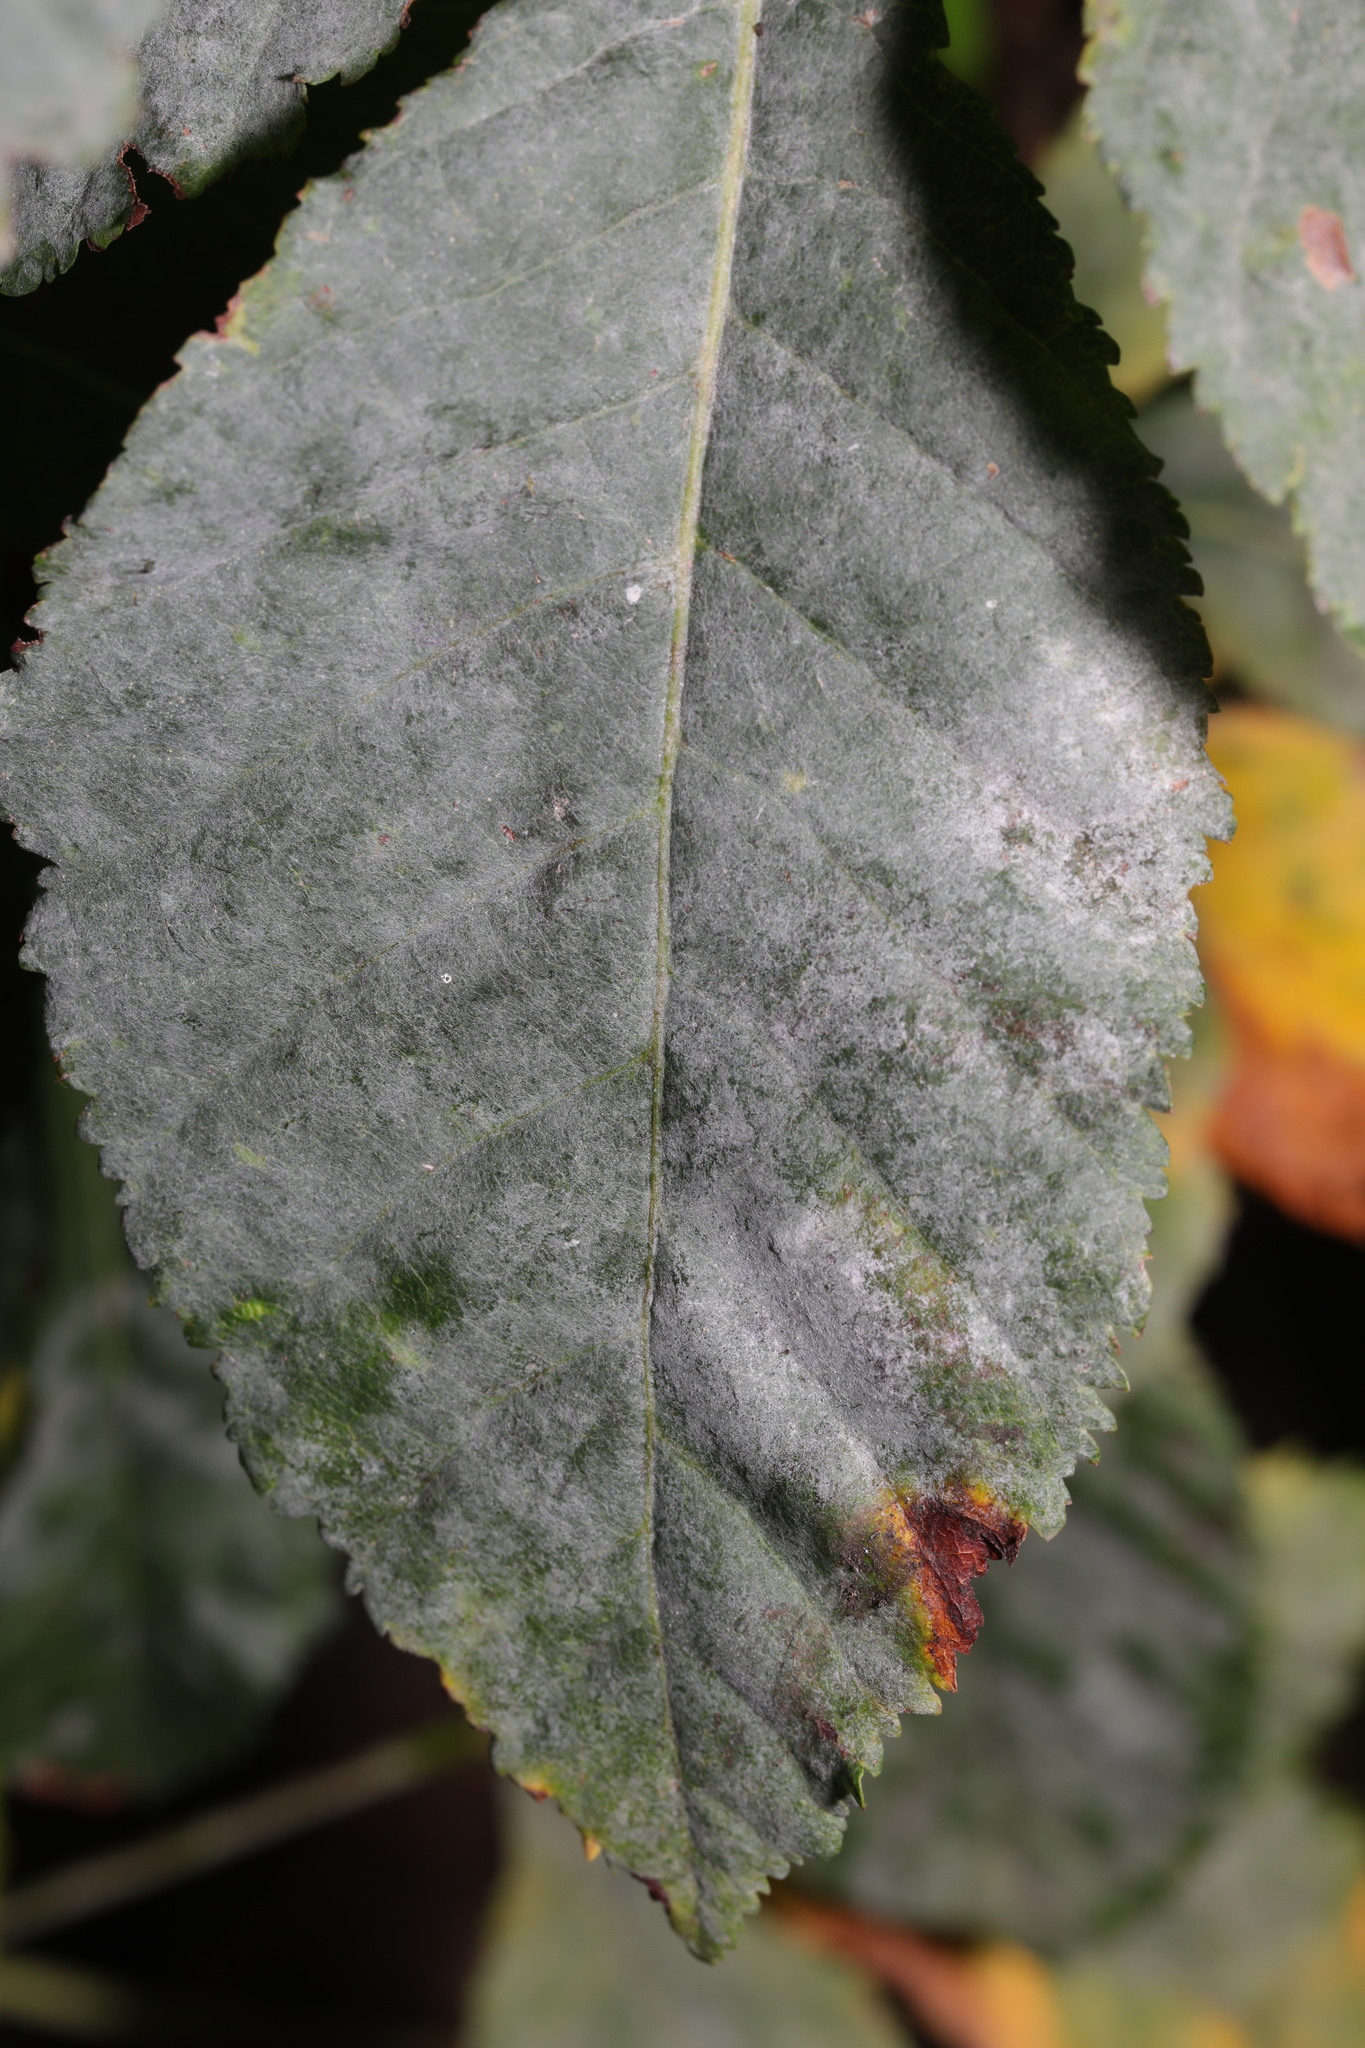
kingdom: Fungi
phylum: Ascomycota
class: Leotiomycetes
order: Helotiales
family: Erysiphaceae
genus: Erysiphe
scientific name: Erysiphe flexuosa
